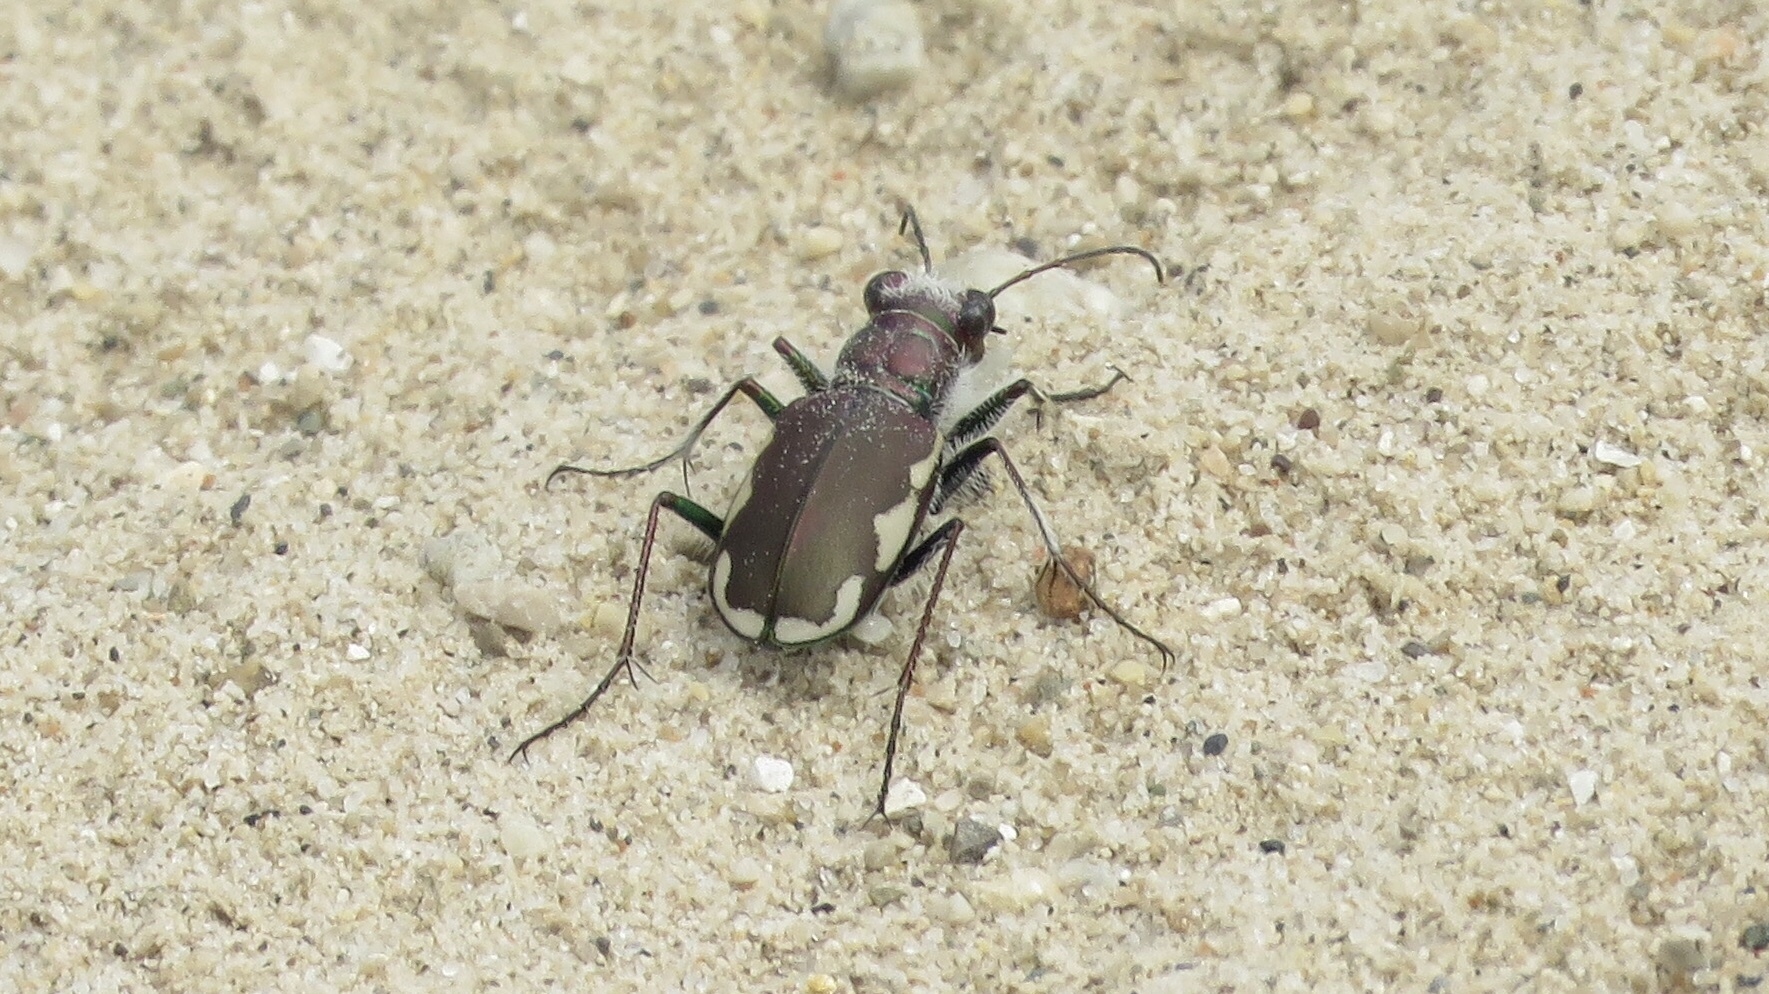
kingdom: Animalia
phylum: Arthropoda
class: Insecta
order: Coleoptera
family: Carabidae
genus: Cicindela
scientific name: Cicindela scutellaris
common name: Festive tiger beetle
